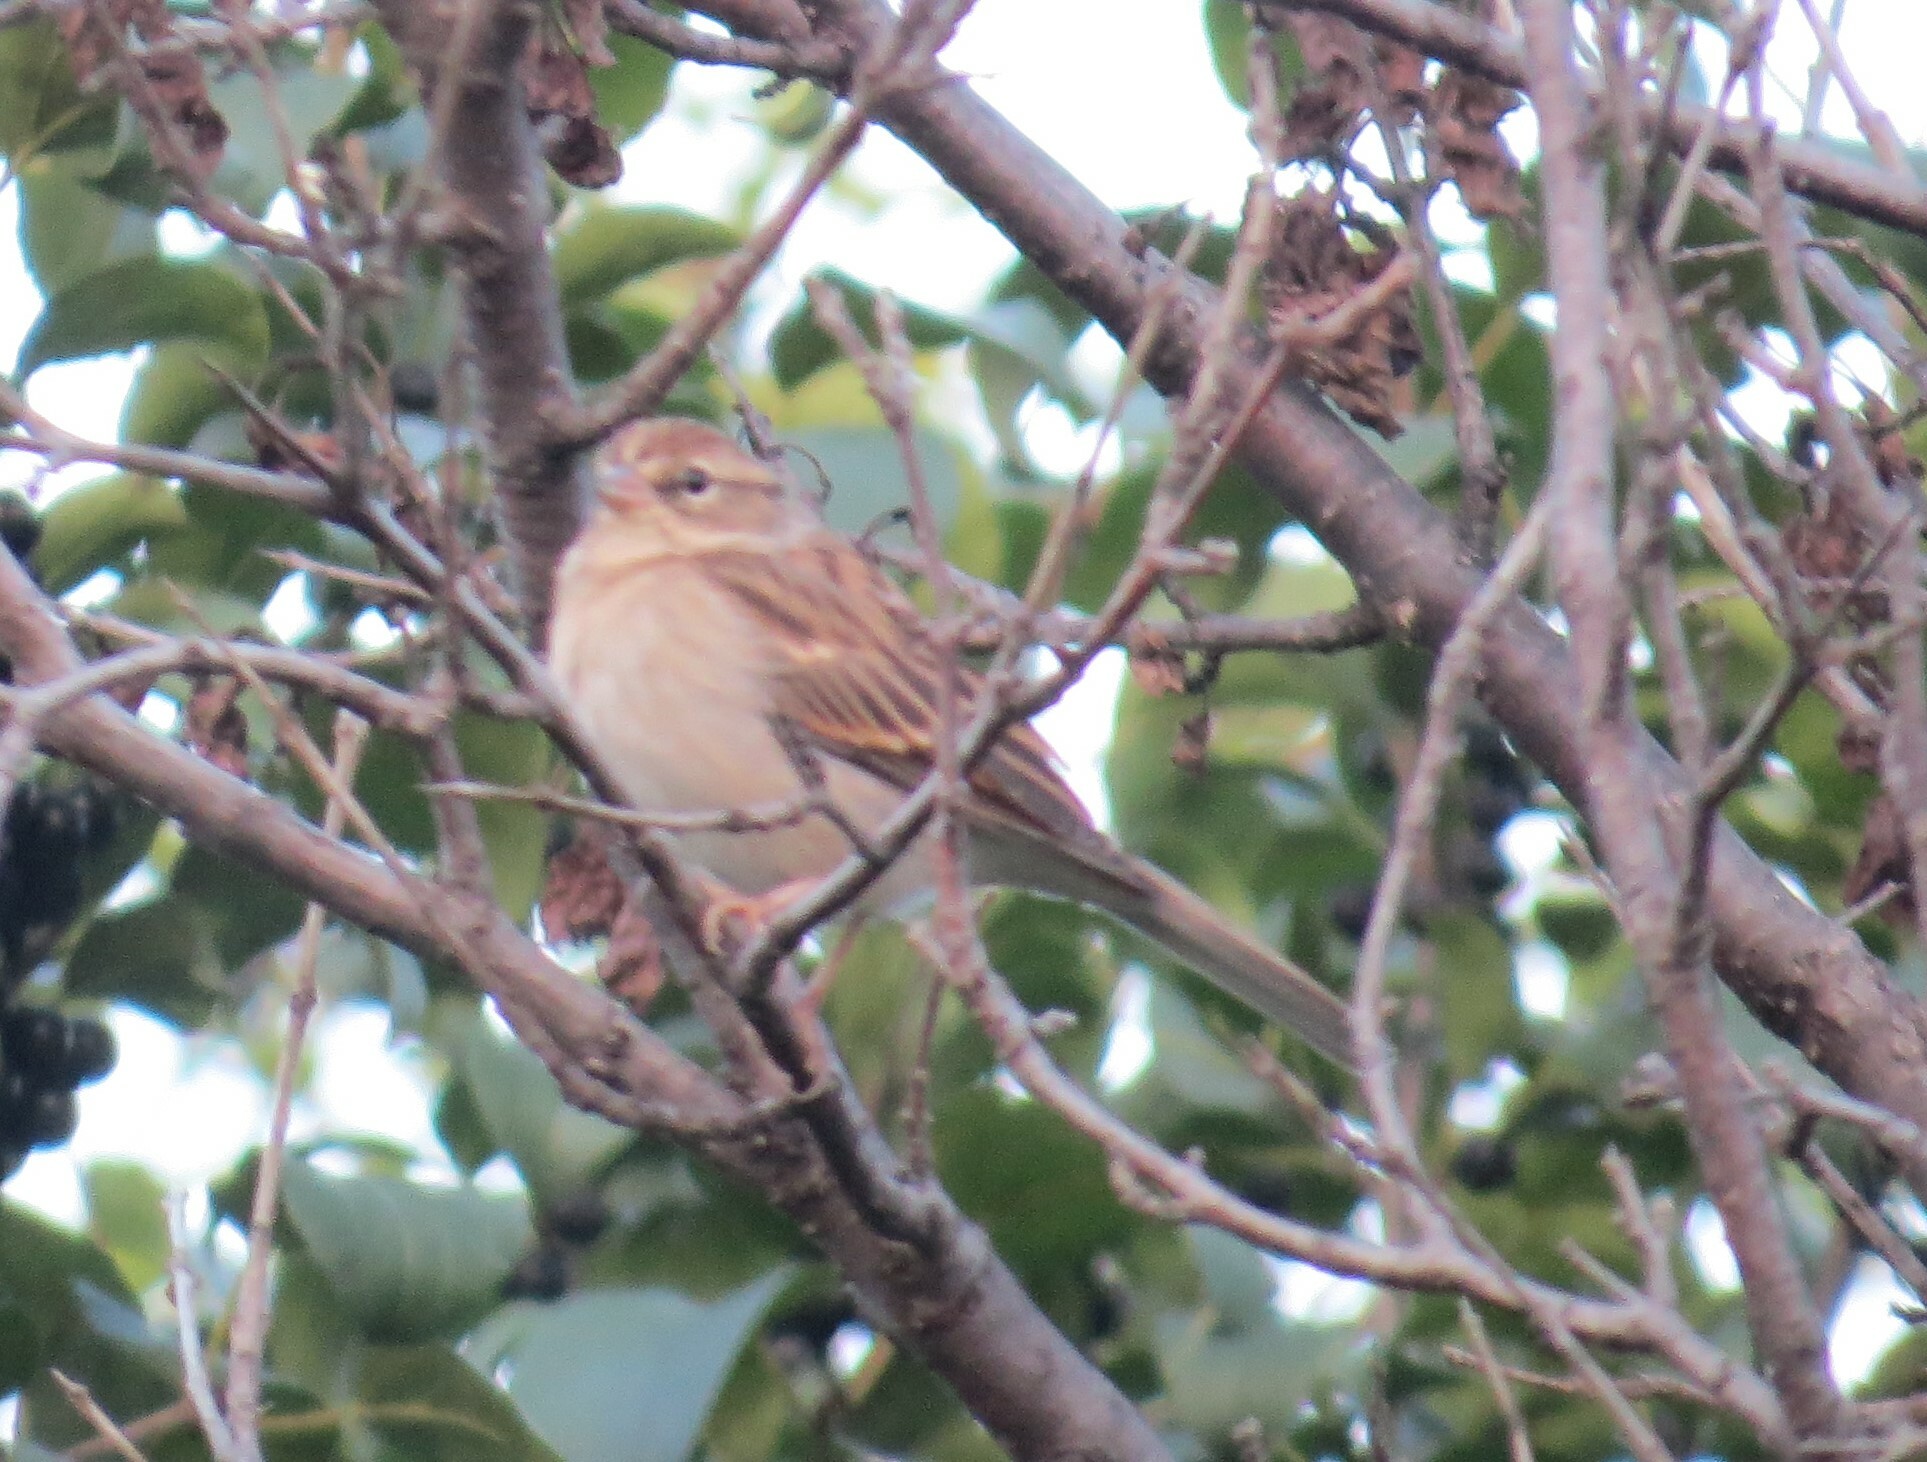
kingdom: Animalia
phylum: Chordata
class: Aves
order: Passeriformes
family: Passerellidae
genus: Spizella
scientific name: Spizella passerina
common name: Chipping sparrow
